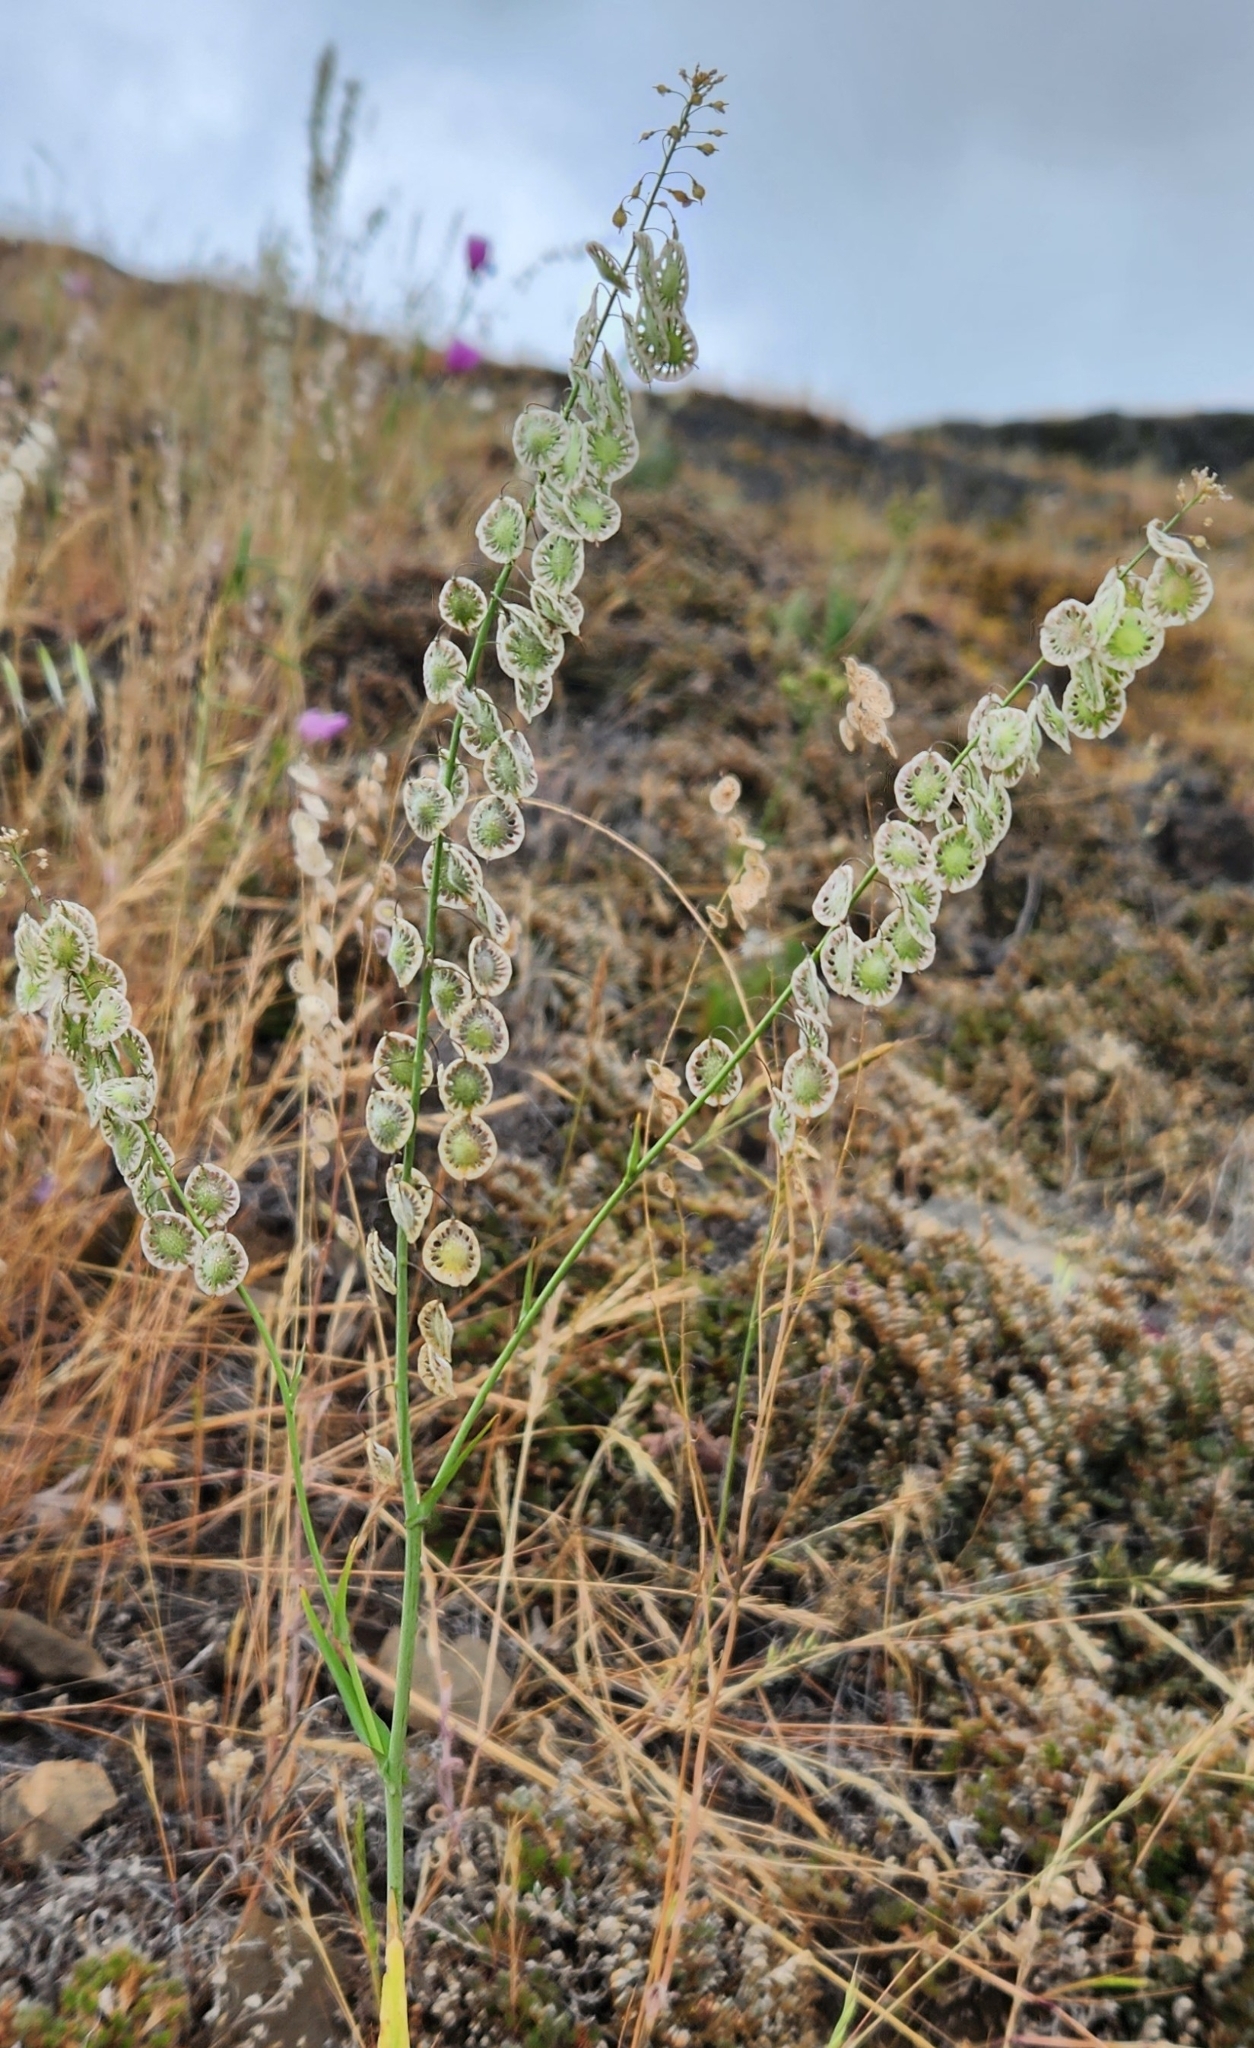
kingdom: Plantae
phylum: Tracheophyta
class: Magnoliopsida
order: Brassicales
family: Brassicaceae
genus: Thysanocarpus
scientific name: Thysanocarpus curvipes
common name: Sand fringepod
